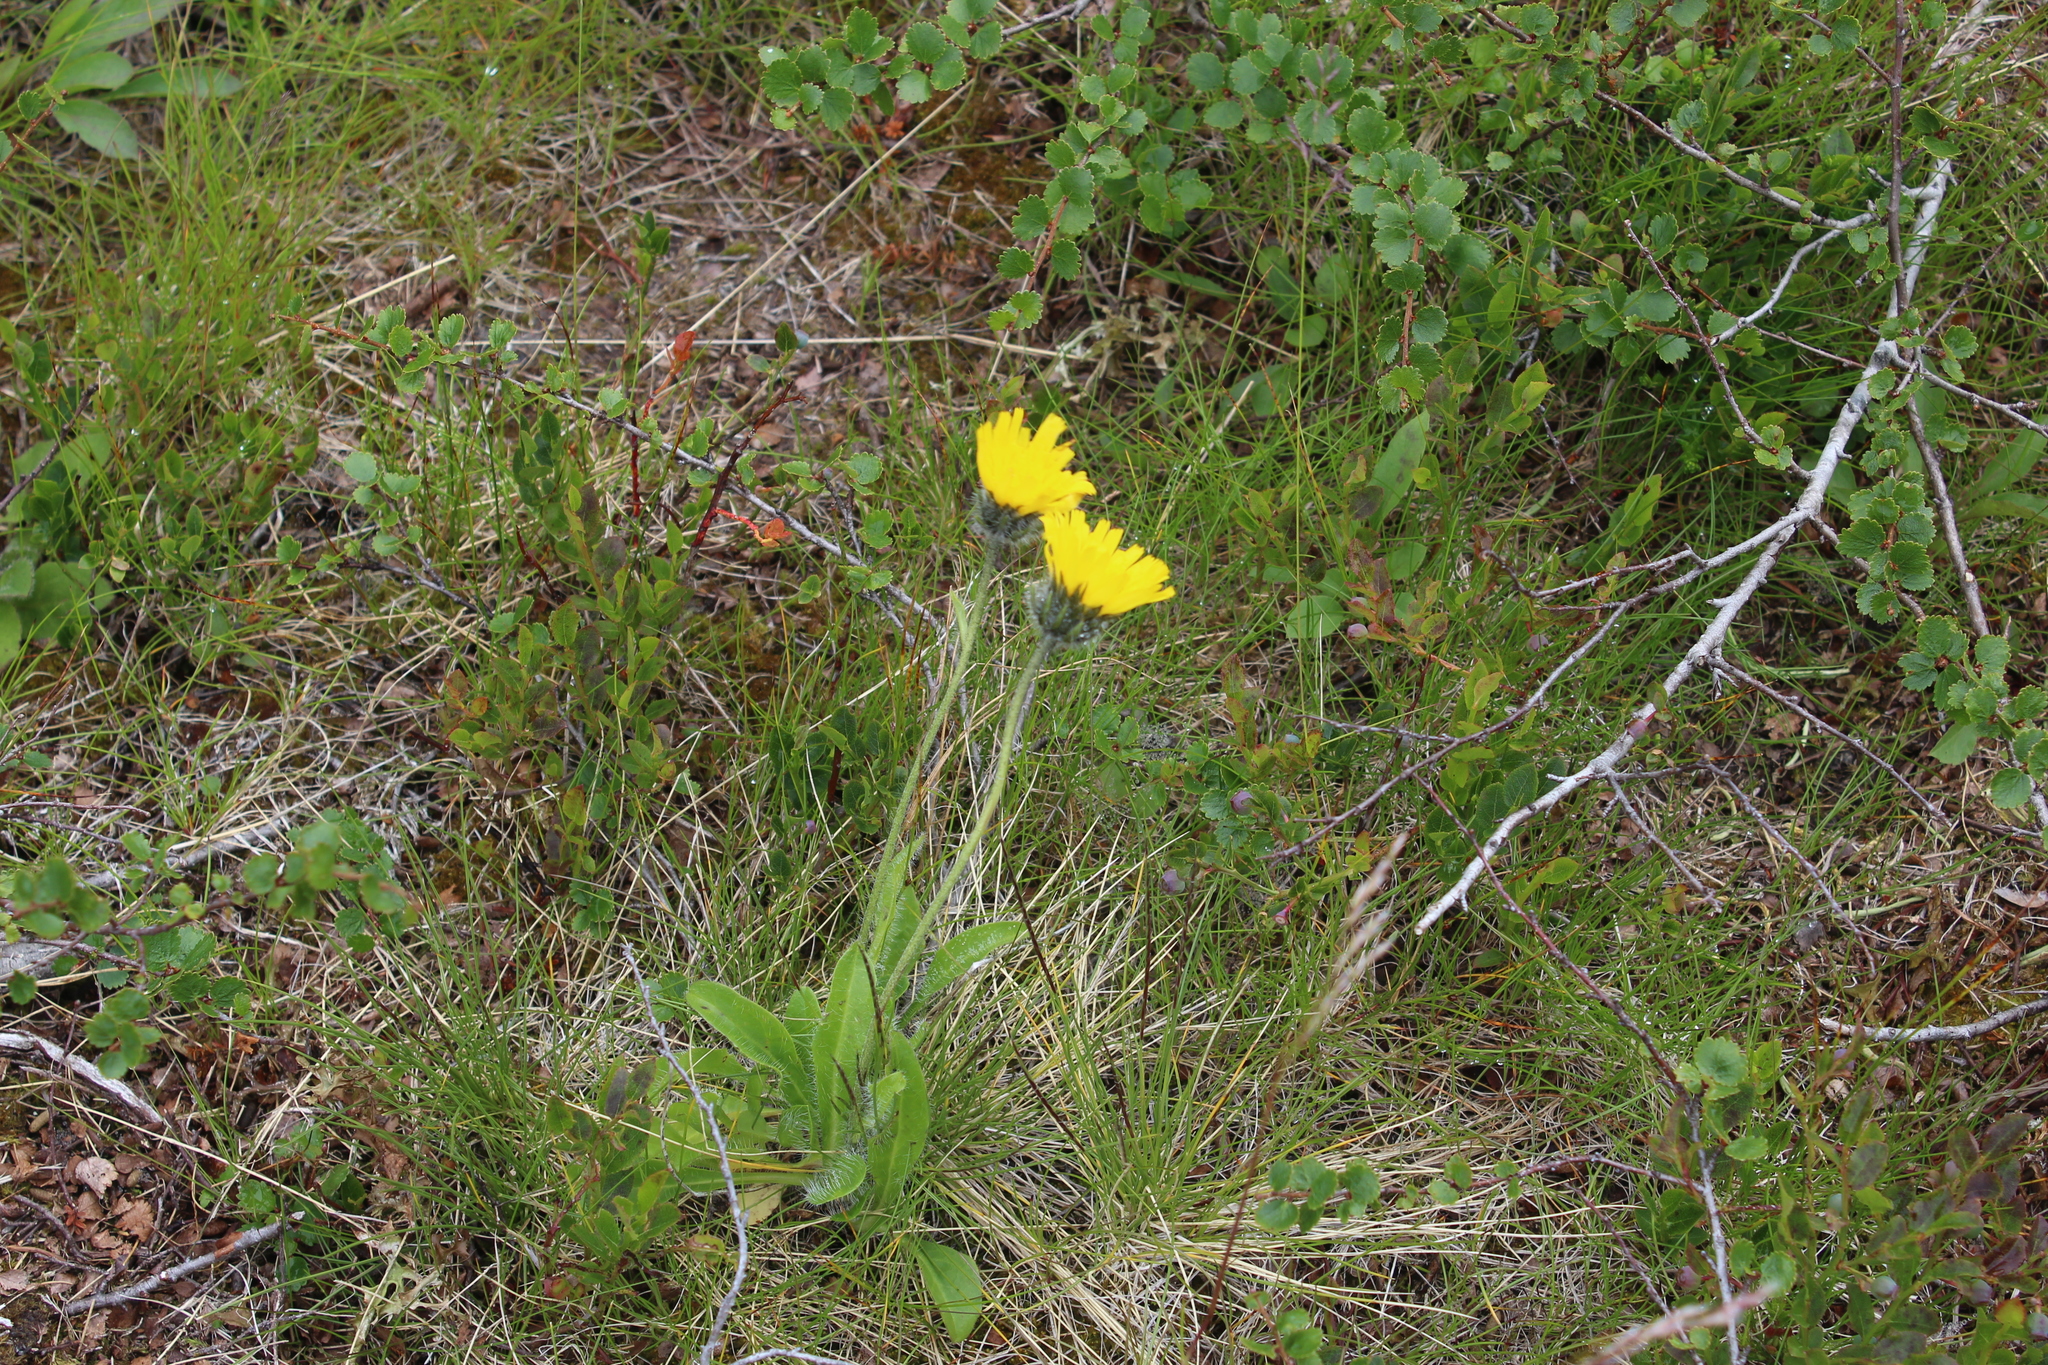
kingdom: Plantae
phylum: Tracheophyta
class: Magnoliopsida
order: Asterales
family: Asteraceae
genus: Hieracium
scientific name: Hieracium alpinum
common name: Alpine hawkweed
